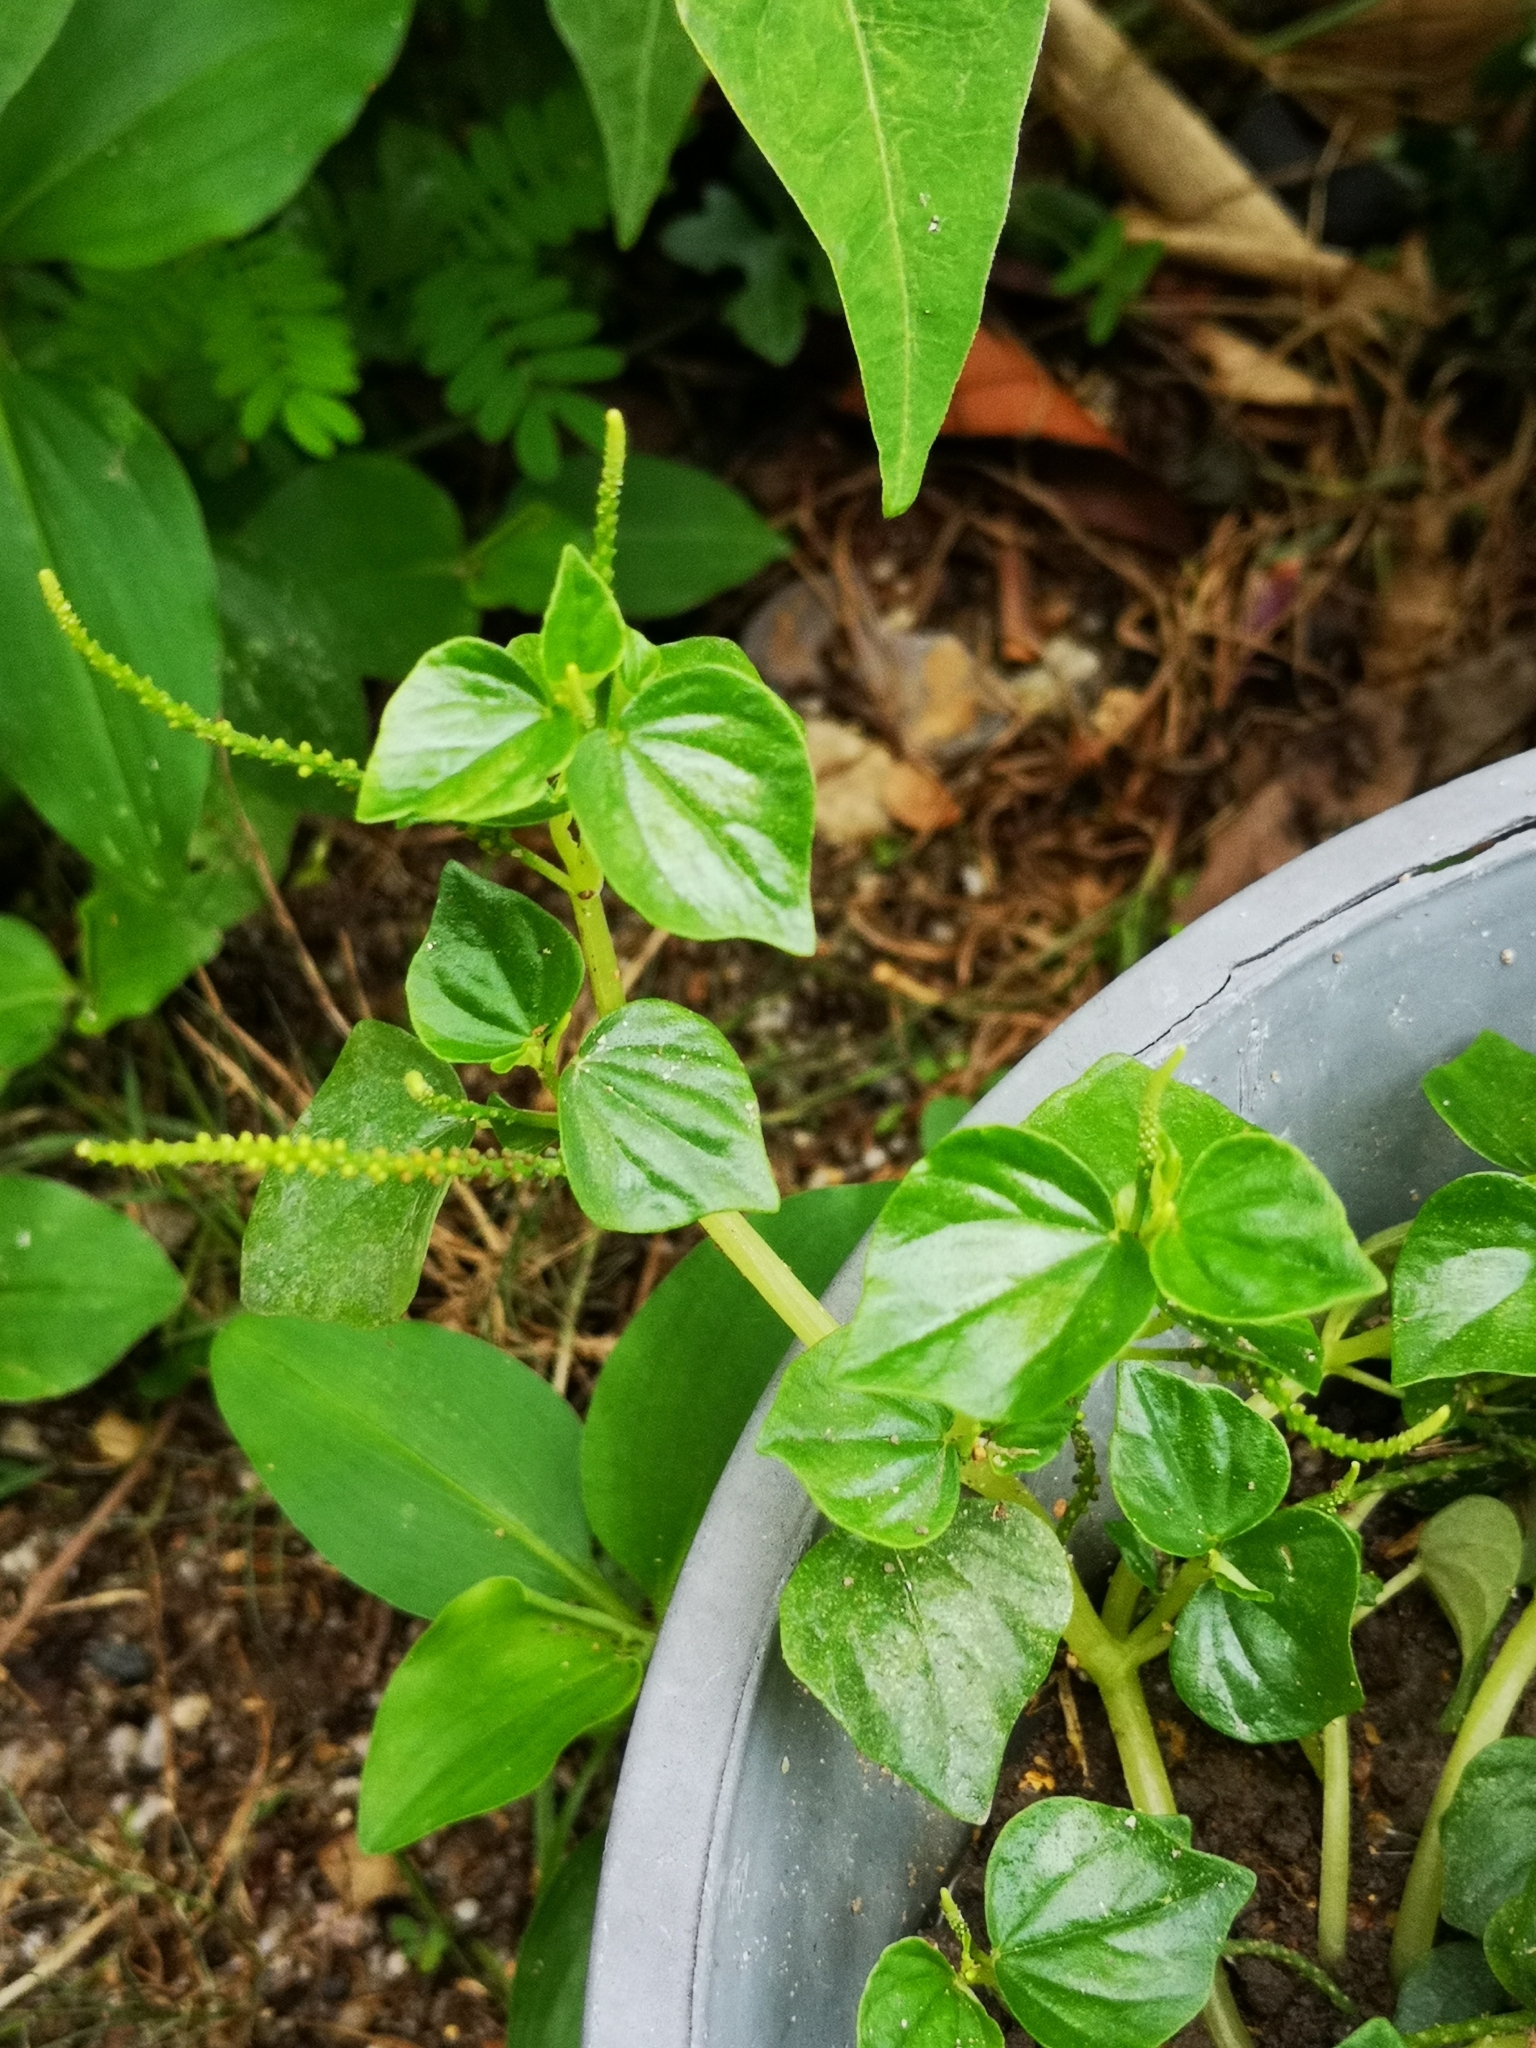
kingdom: Plantae
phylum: Tracheophyta
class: Magnoliopsida
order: Piperales
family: Piperaceae
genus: Peperomia
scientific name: Peperomia pellucida
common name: Man to man
